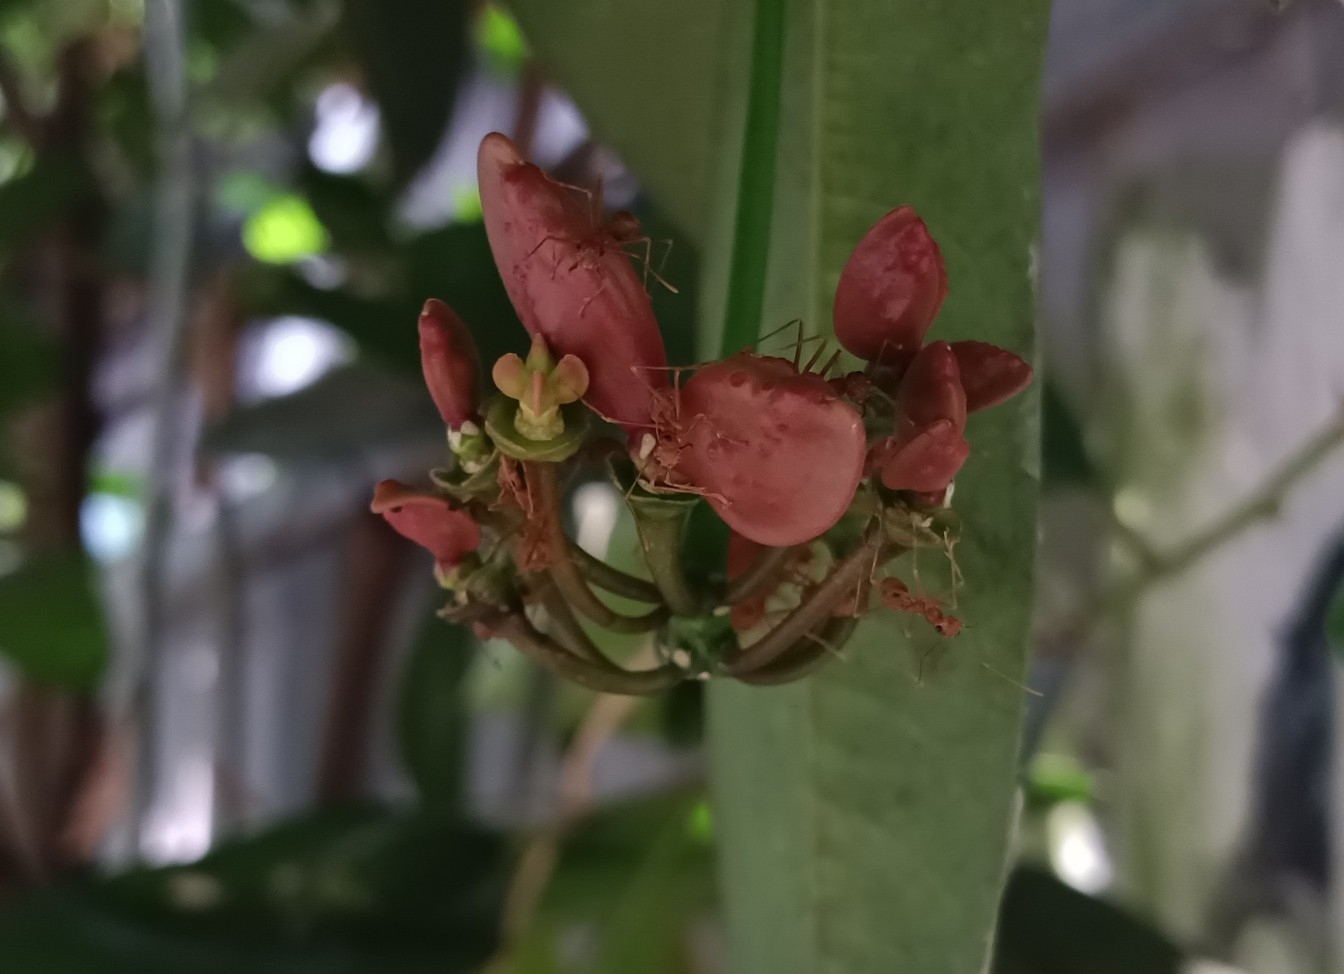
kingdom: Plantae
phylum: Tracheophyta
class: Magnoliopsida
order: Sapindales
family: Simaroubaceae
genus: Samadera
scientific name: Samadera indica
